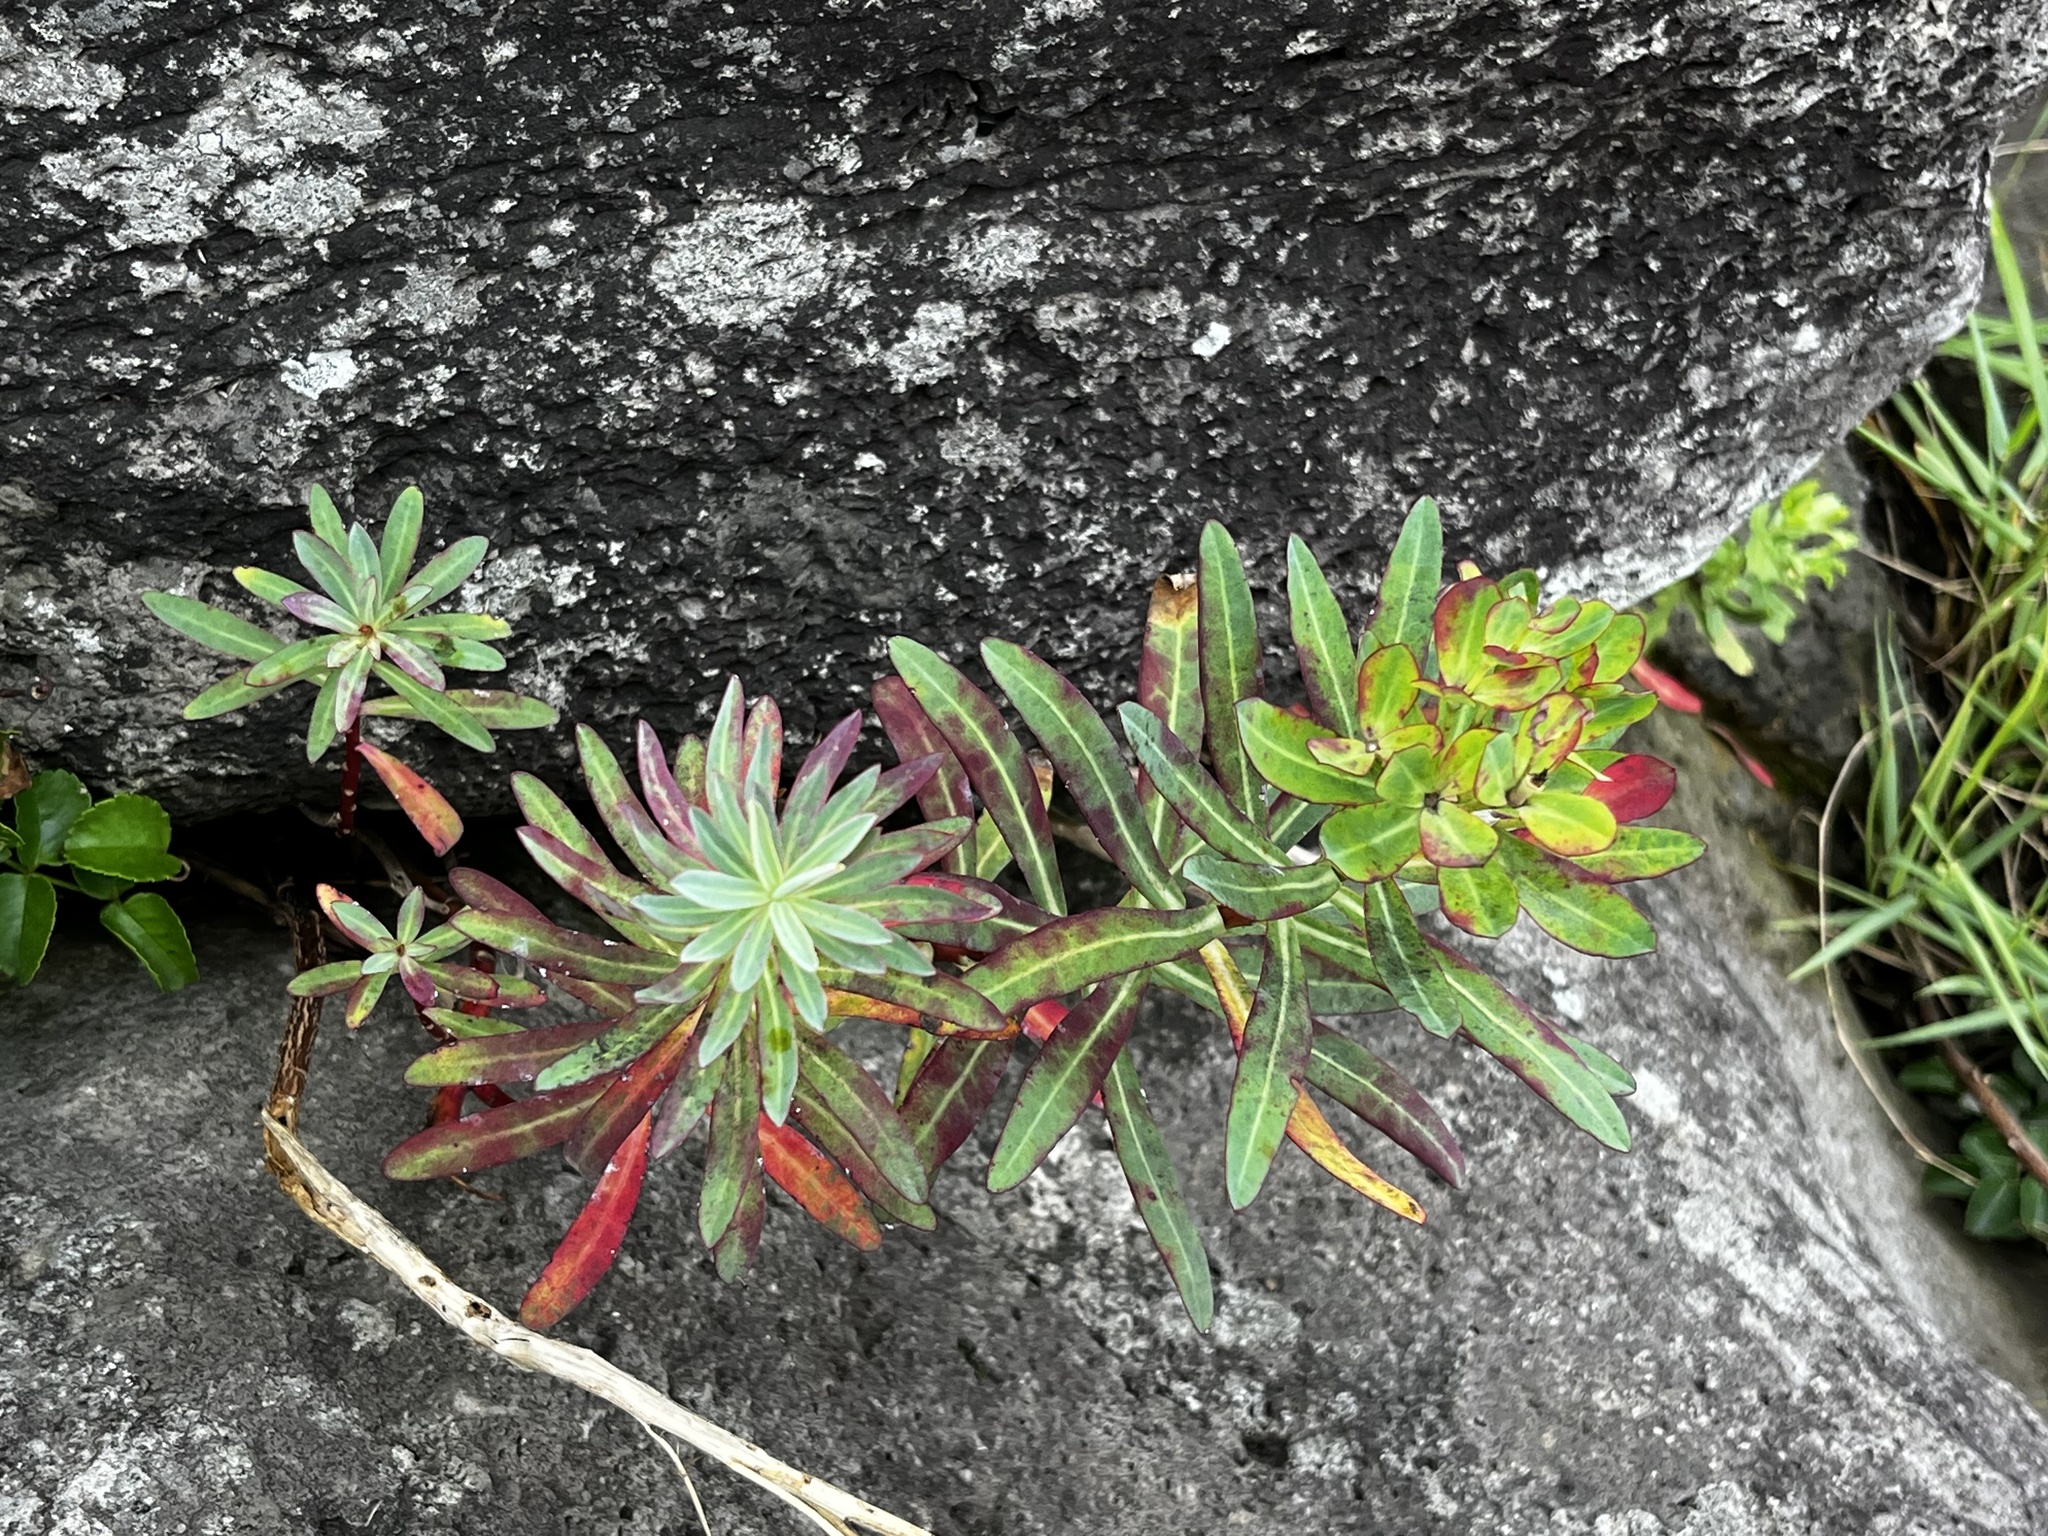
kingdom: Plantae
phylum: Tracheophyta
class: Magnoliopsida
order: Malpighiales
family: Euphorbiaceae
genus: Euphorbia
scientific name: Euphorbia jolkinii
